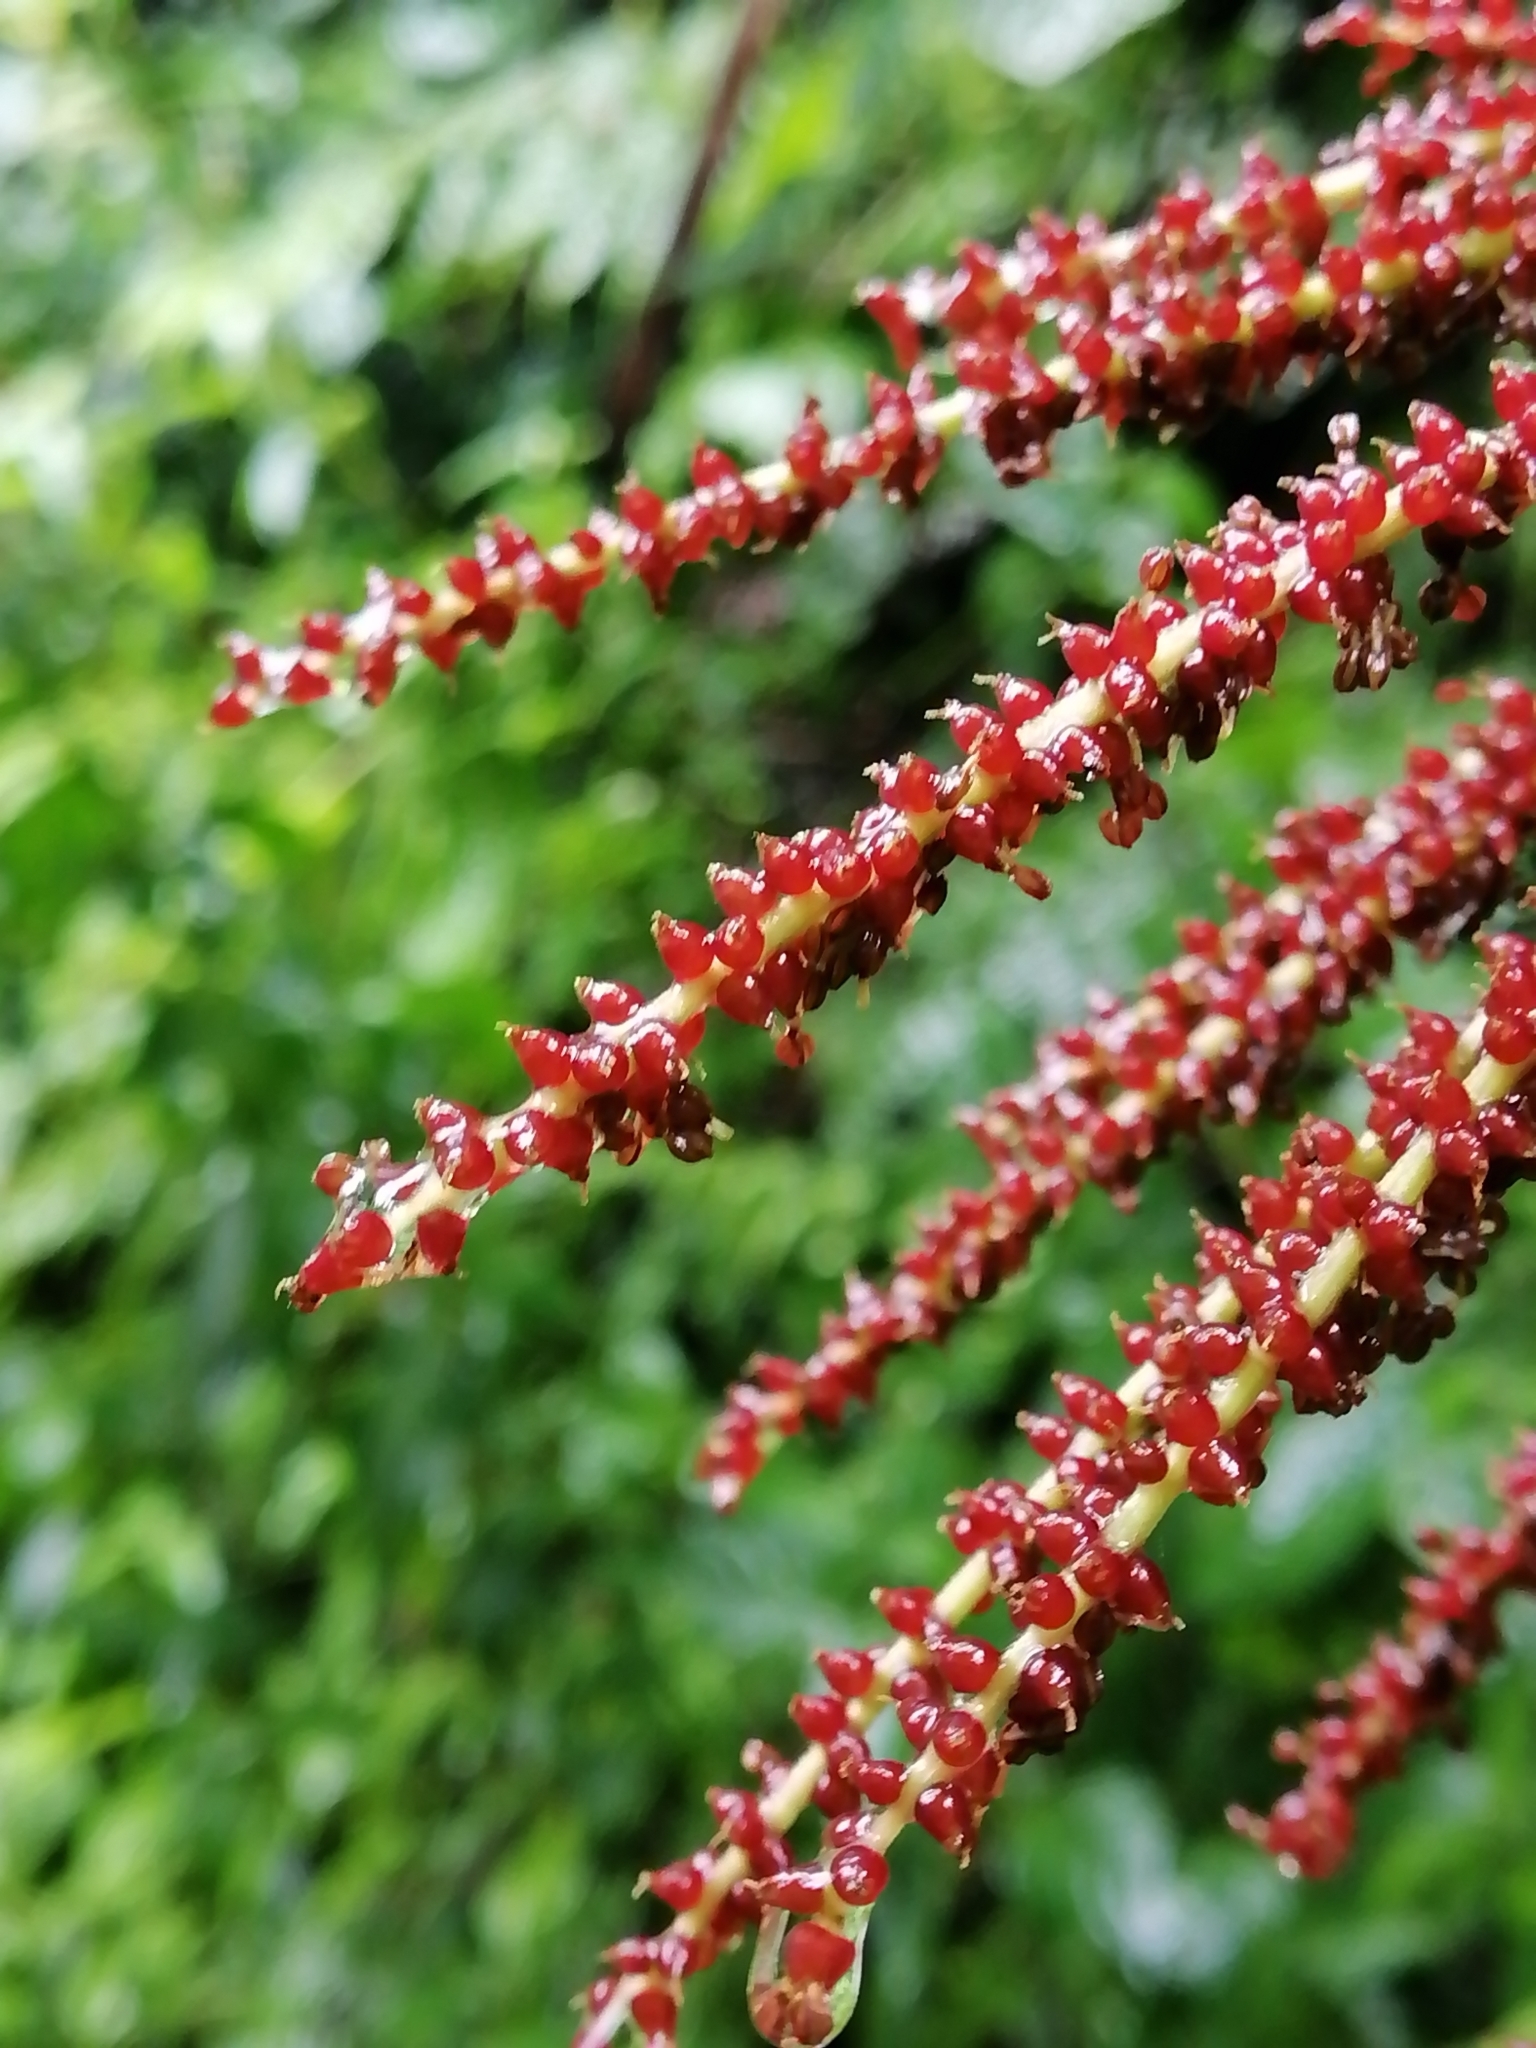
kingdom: Plantae
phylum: Tracheophyta
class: Magnoliopsida
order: Gunnerales
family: Gunneraceae
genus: Gunnera
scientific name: Gunnera mexicana
